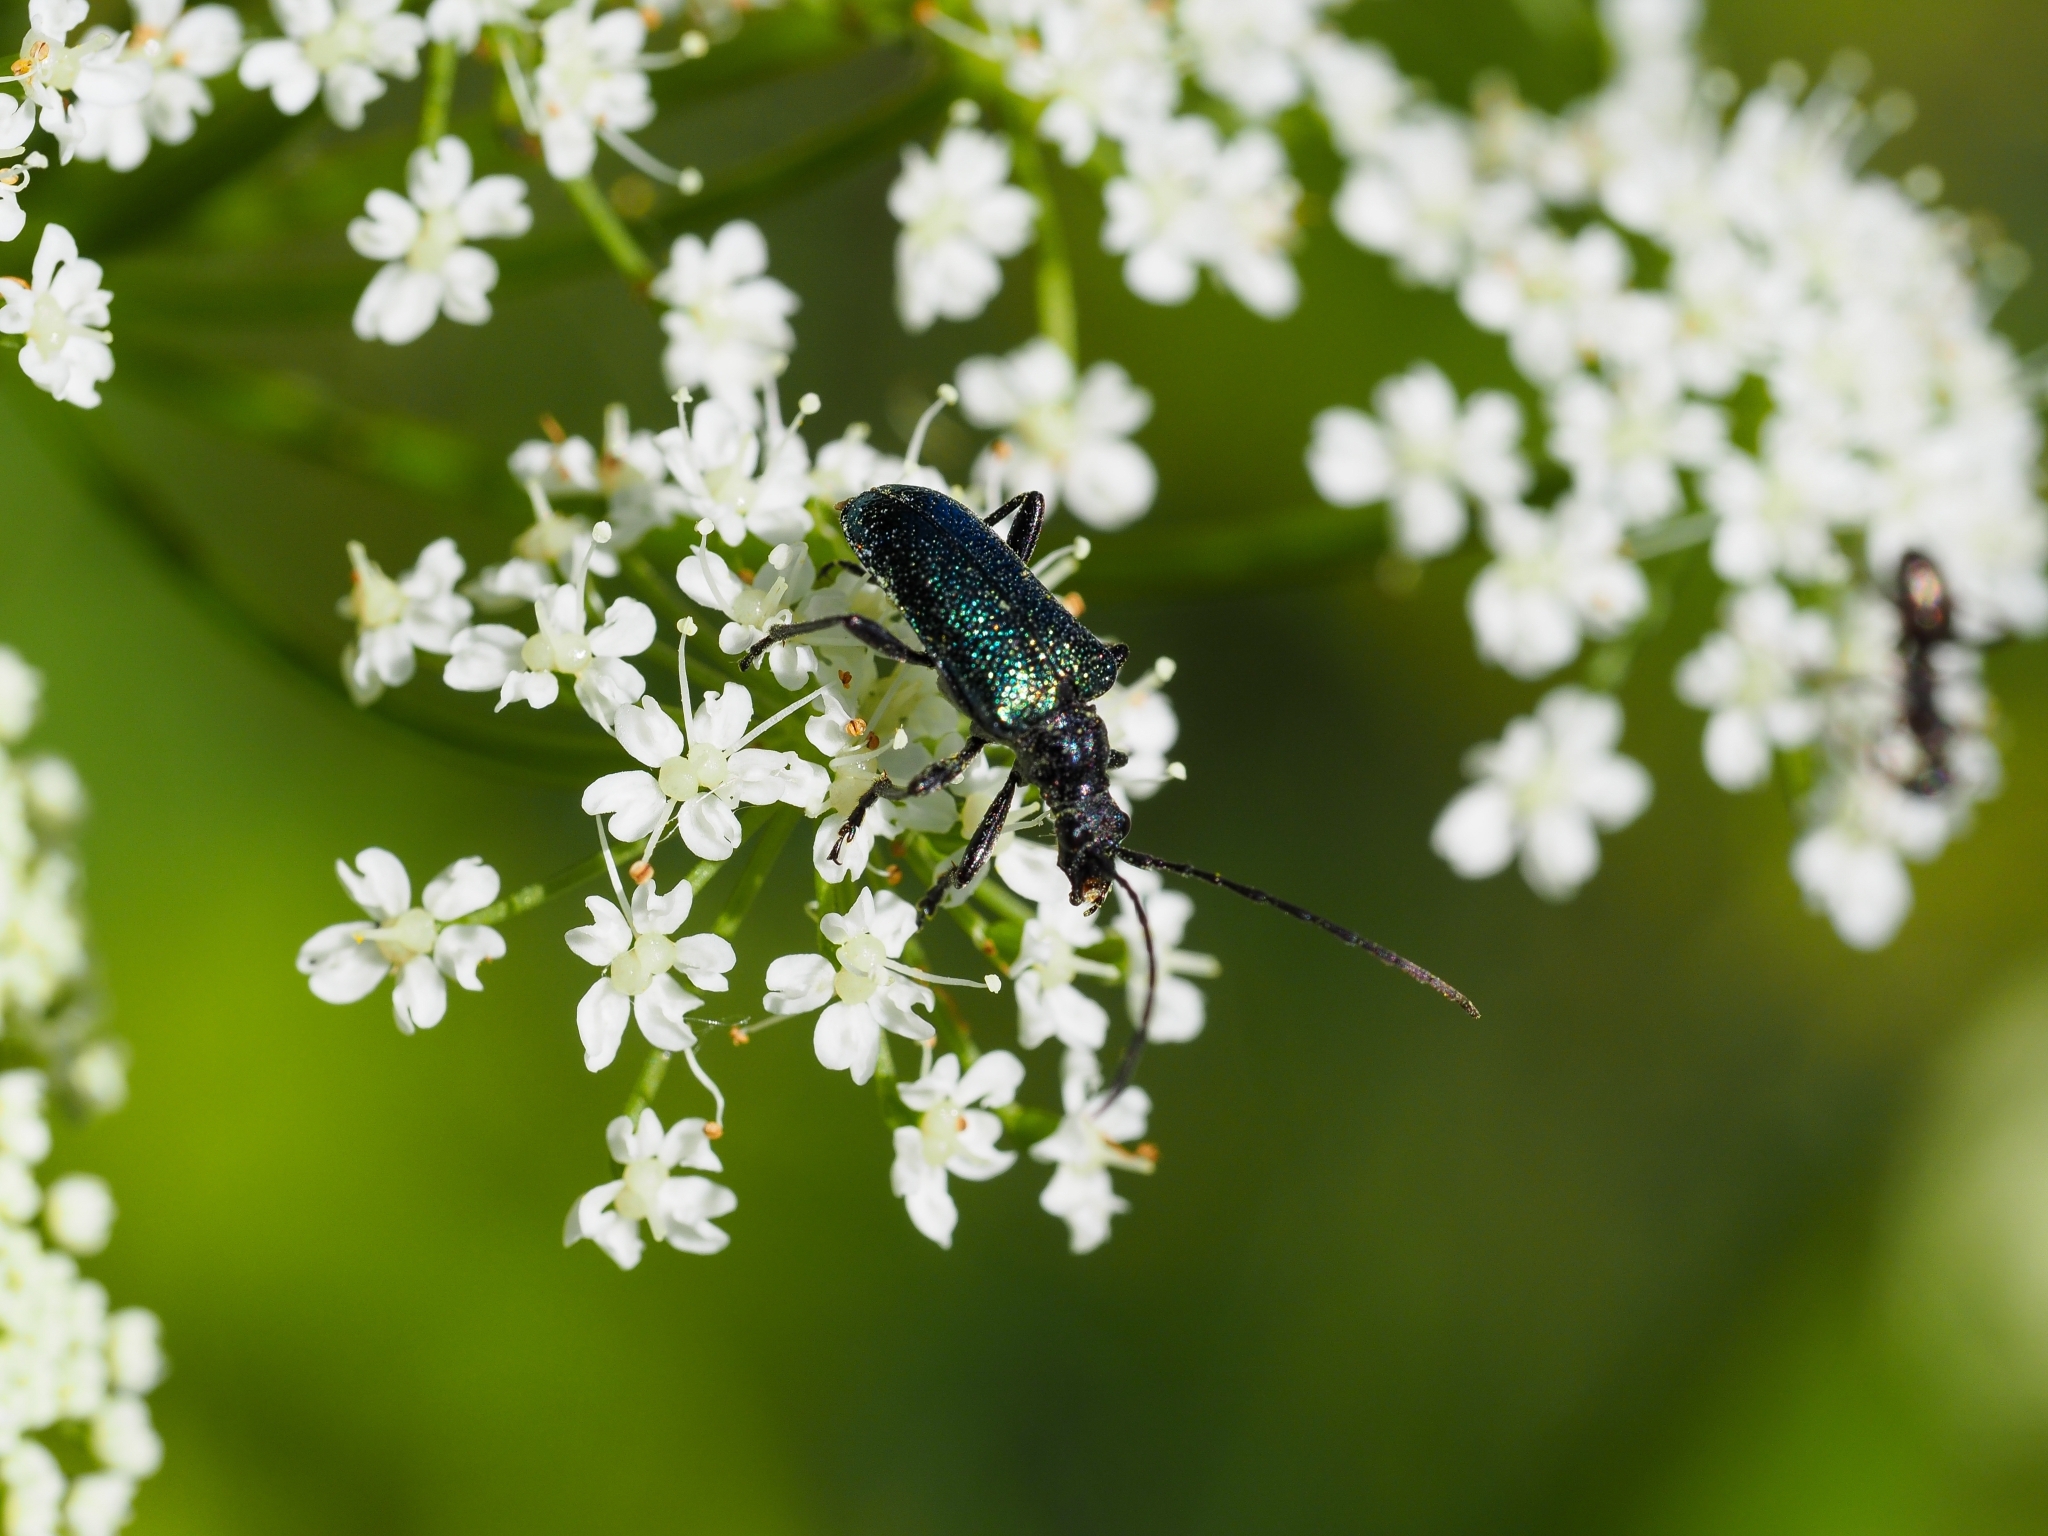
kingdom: Animalia
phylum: Arthropoda
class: Insecta
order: Coleoptera
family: Cerambycidae
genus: Gaurotes
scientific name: Gaurotes virginea
